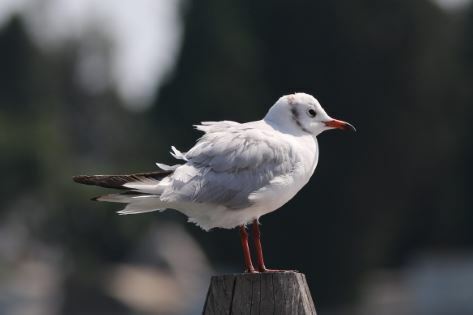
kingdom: Animalia
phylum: Chordata
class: Aves
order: Charadriiformes
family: Laridae
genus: Chroicocephalus
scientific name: Chroicocephalus ridibundus
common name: Black-headed gull
